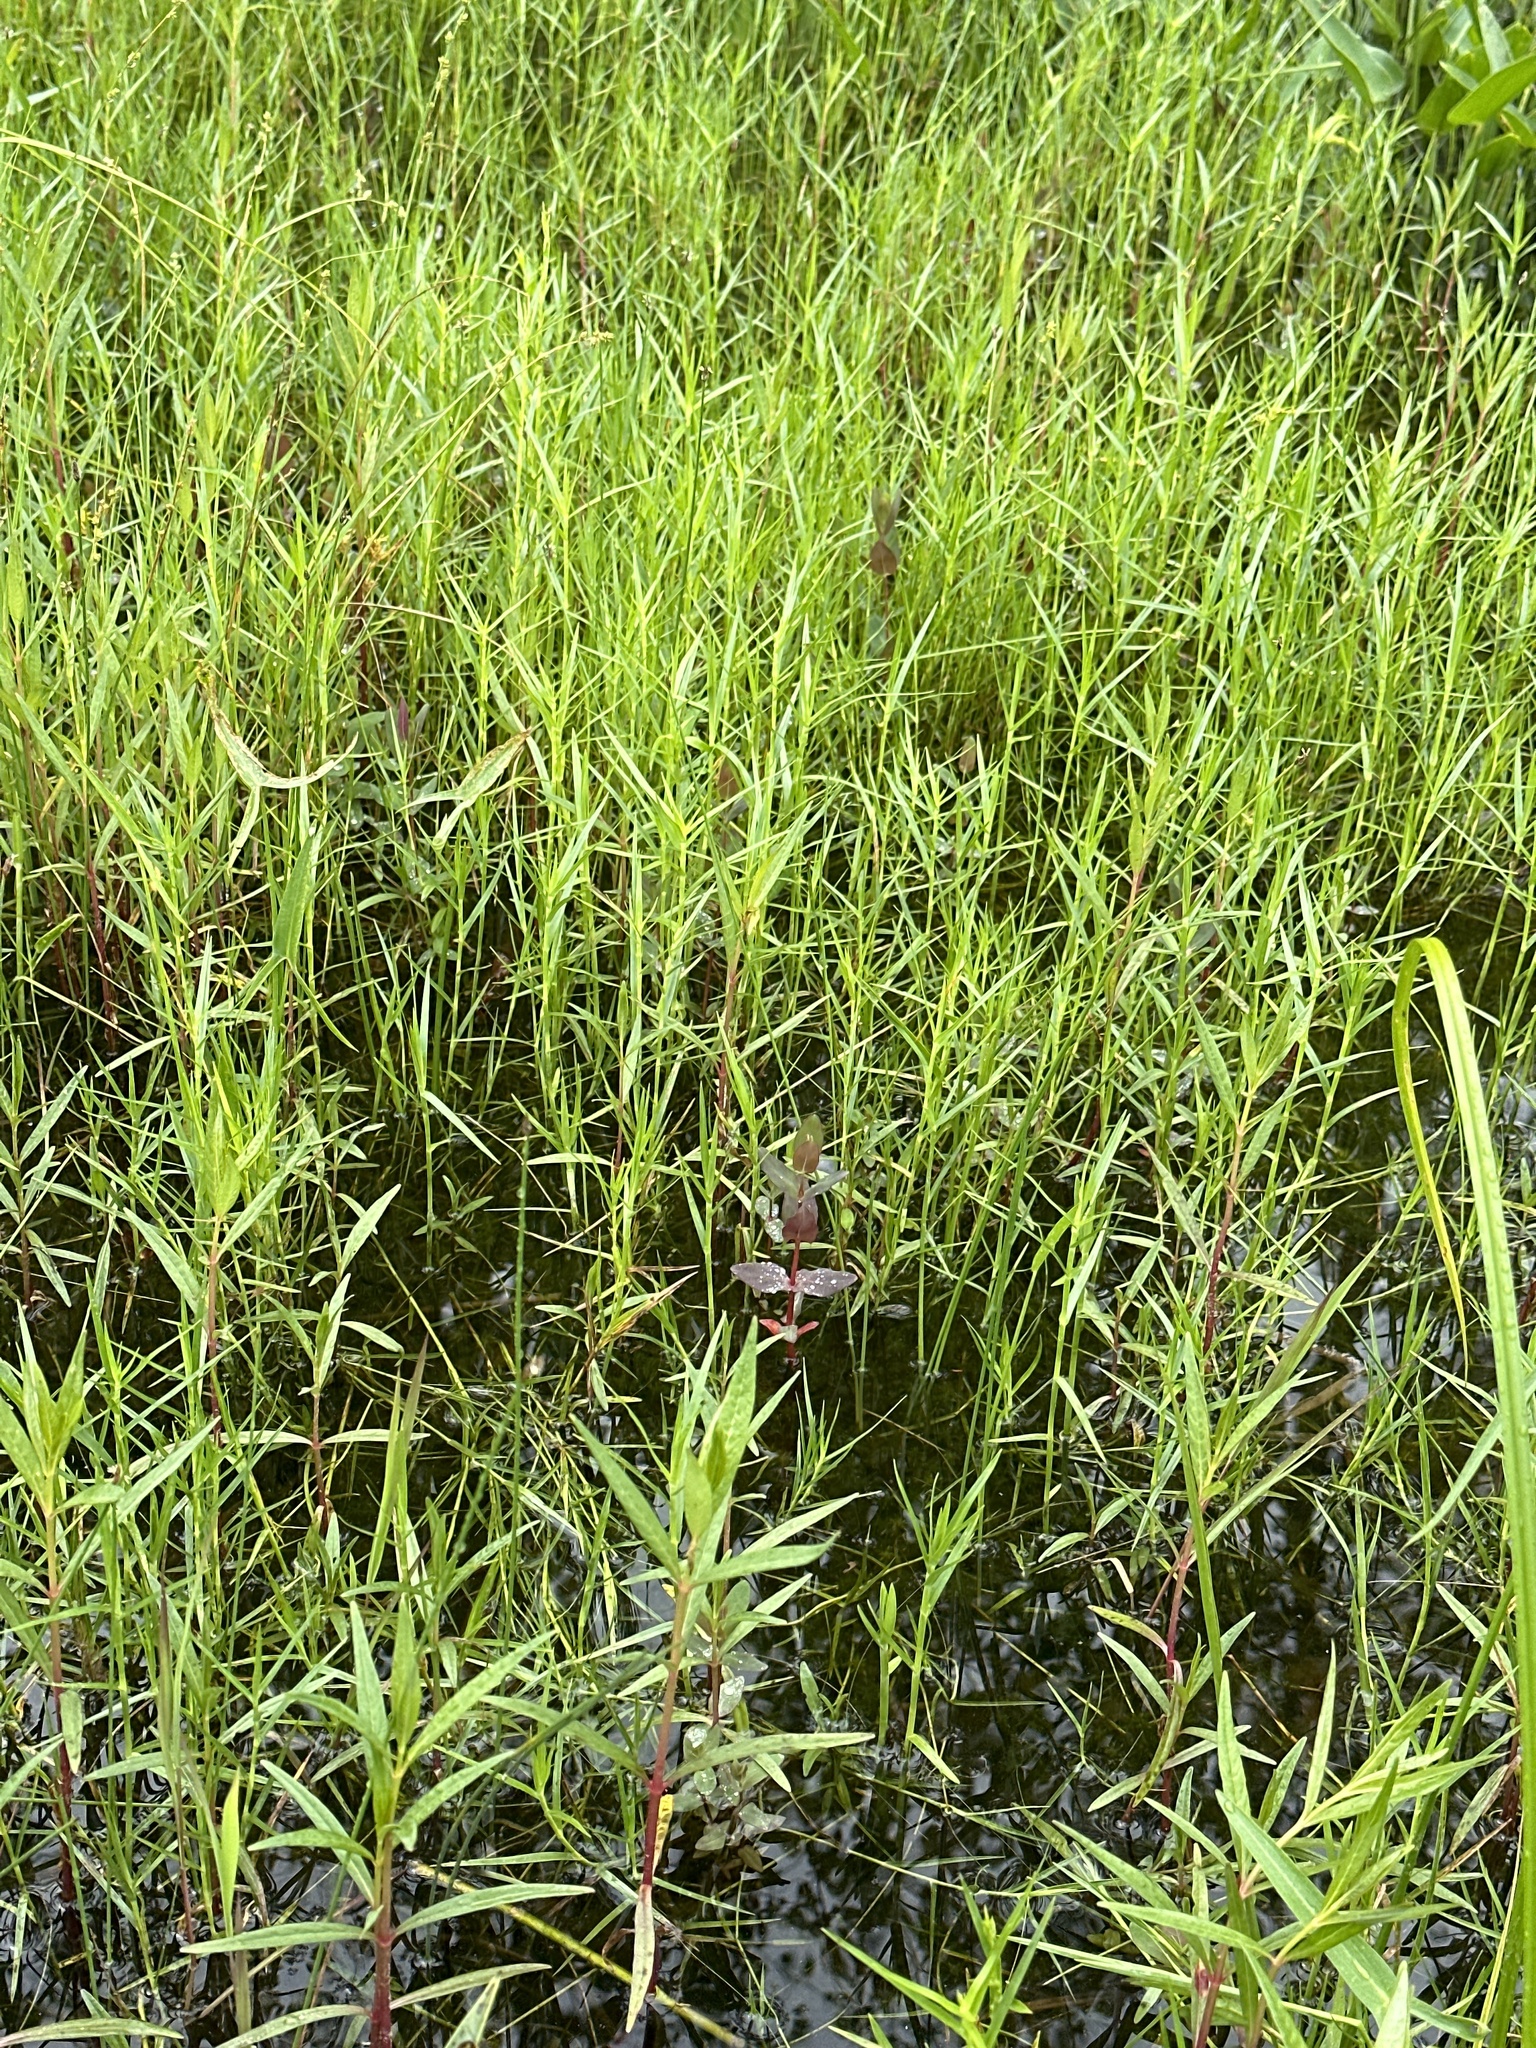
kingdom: Plantae
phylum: Tracheophyta
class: Magnoliopsida
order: Ericales
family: Primulaceae
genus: Lysimachia
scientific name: Lysimachia thyrsiflora
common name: Tufted loosestrife
